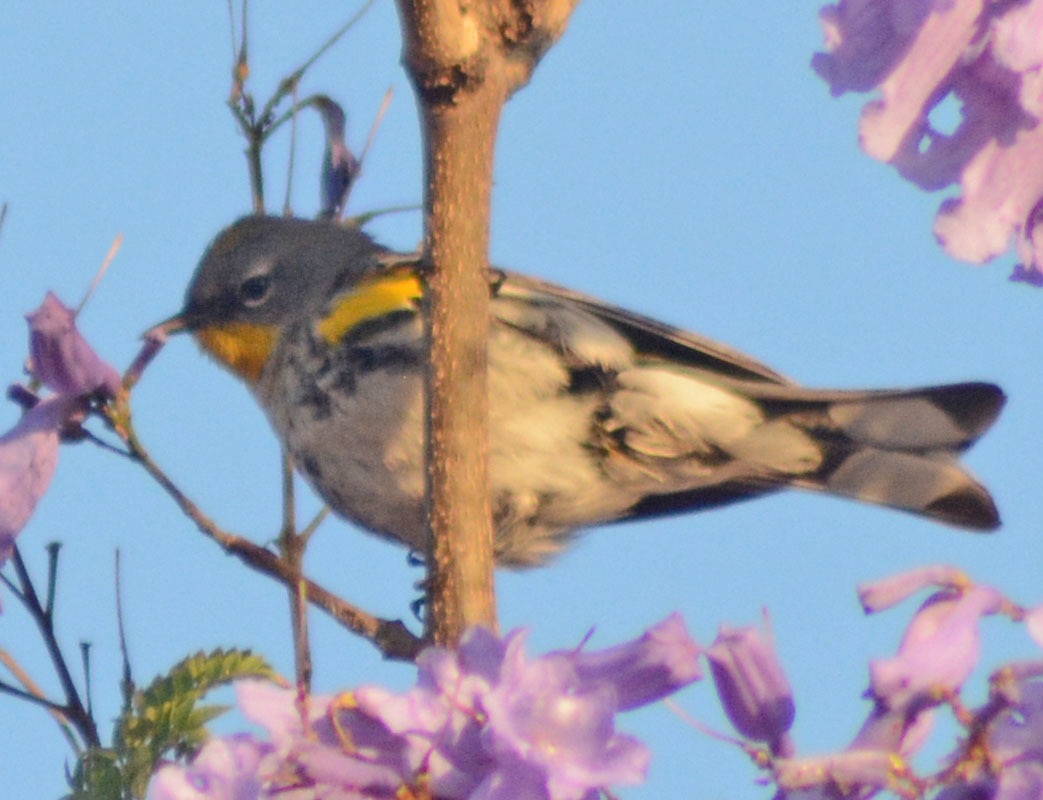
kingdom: Animalia
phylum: Chordata
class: Aves
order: Passeriformes
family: Parulidae
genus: Setophaga
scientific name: Setophaga auduboni
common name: Audubon's warbler
